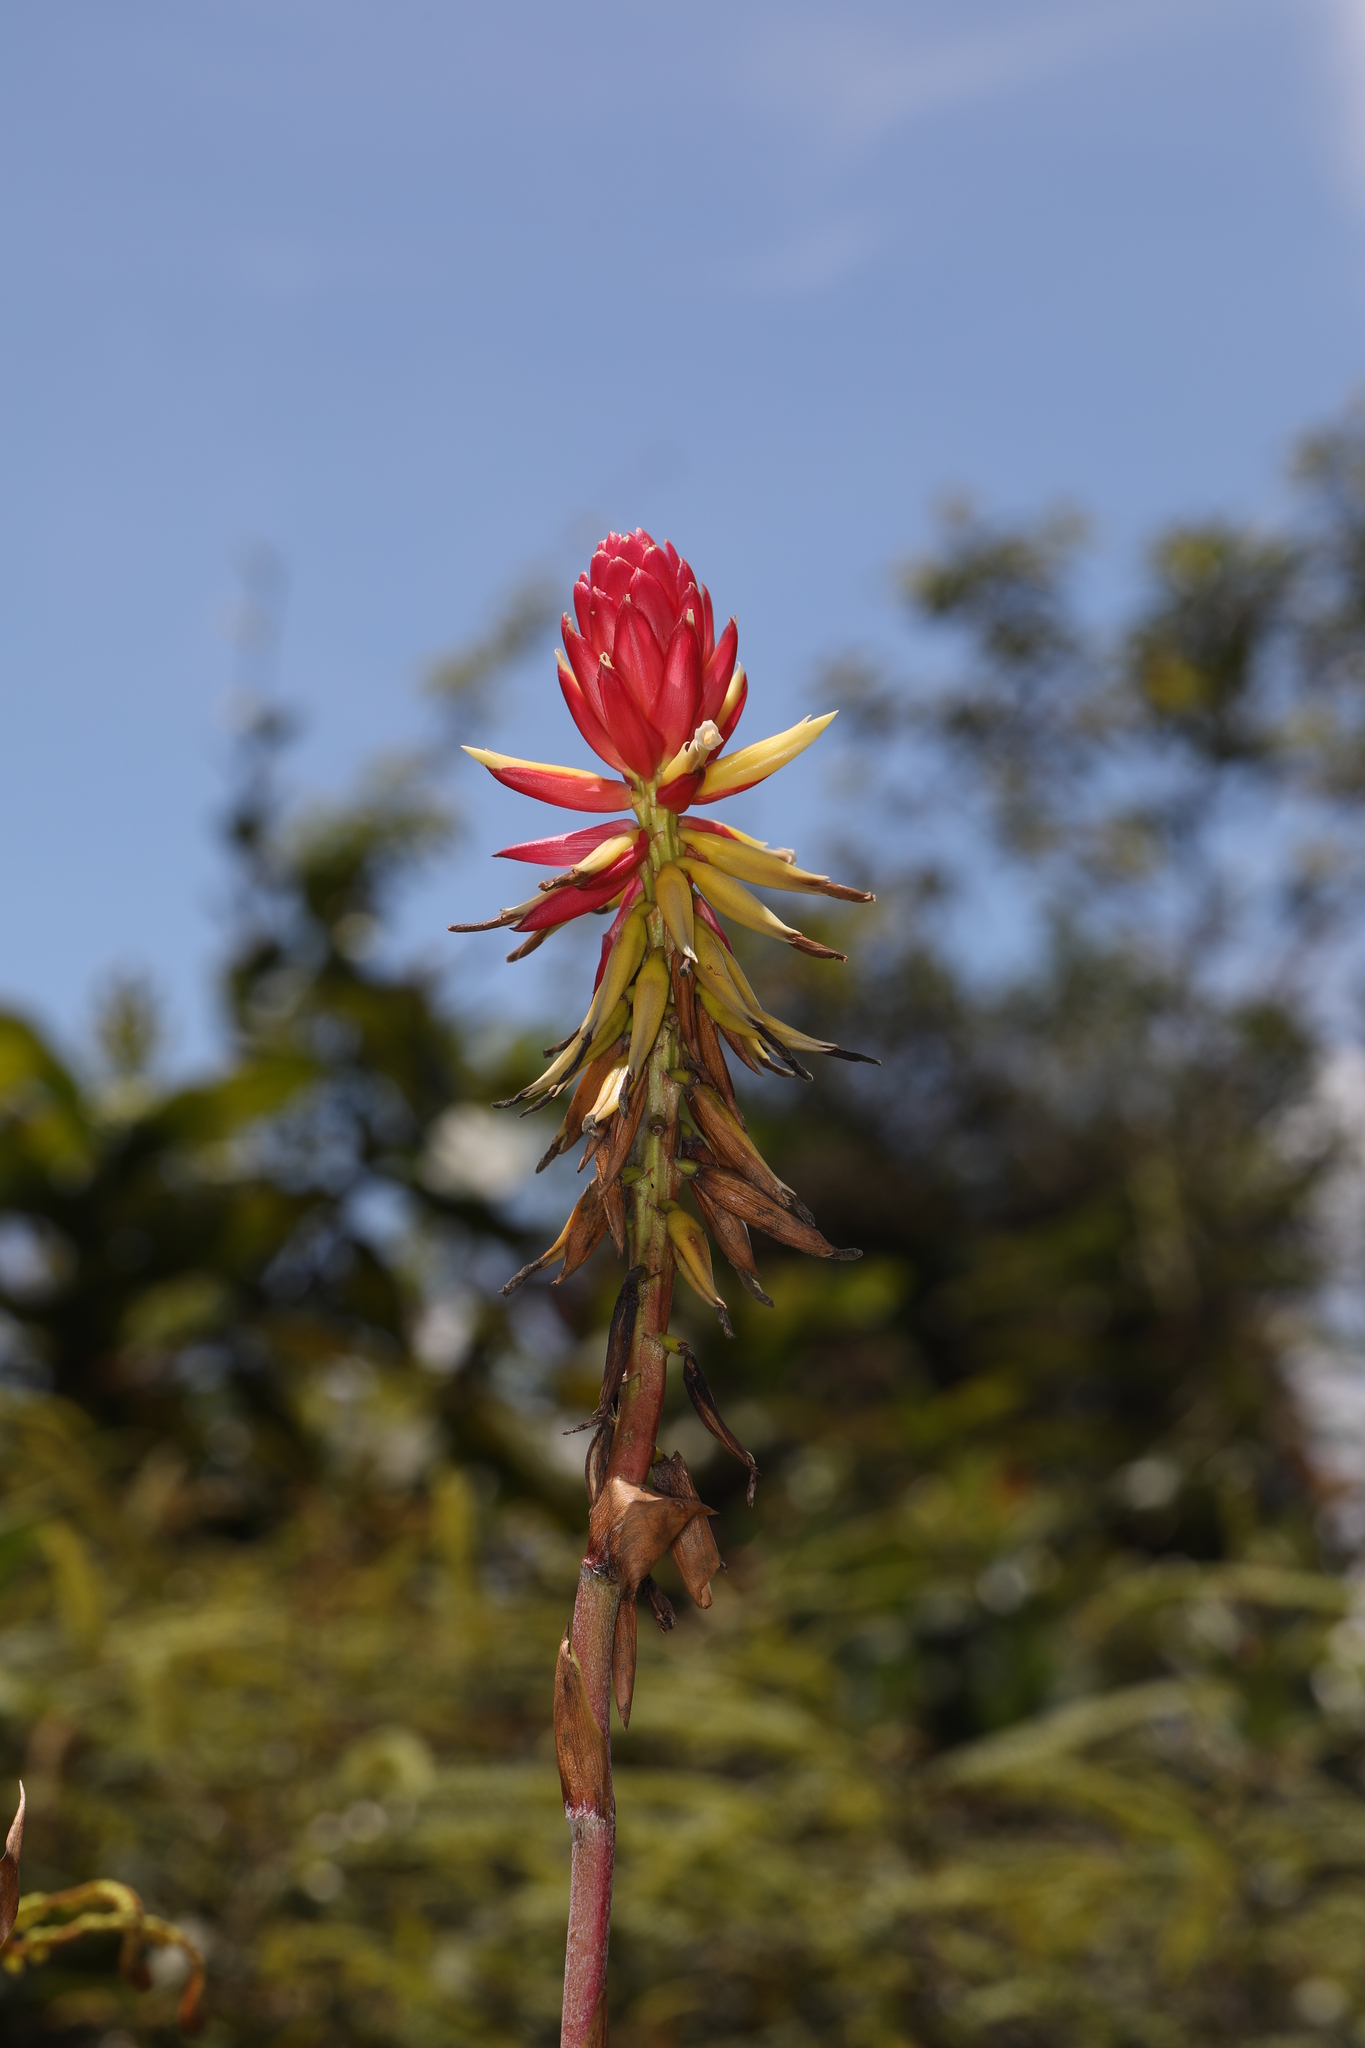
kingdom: Plantae
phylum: Tracheophyta
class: Liliopsida
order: Poales
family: Bromeliaceae
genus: Pitcairnia
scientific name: Pitcairnia kniphofioides
